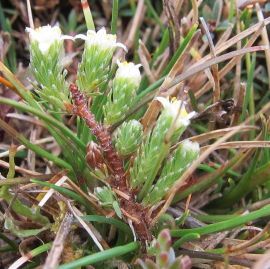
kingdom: Plantae
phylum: Tracheophyta
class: Magnoliopsida
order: Malvales
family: Thymelaeaceae
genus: Kelleria
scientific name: Kelleria dieffenbachii
